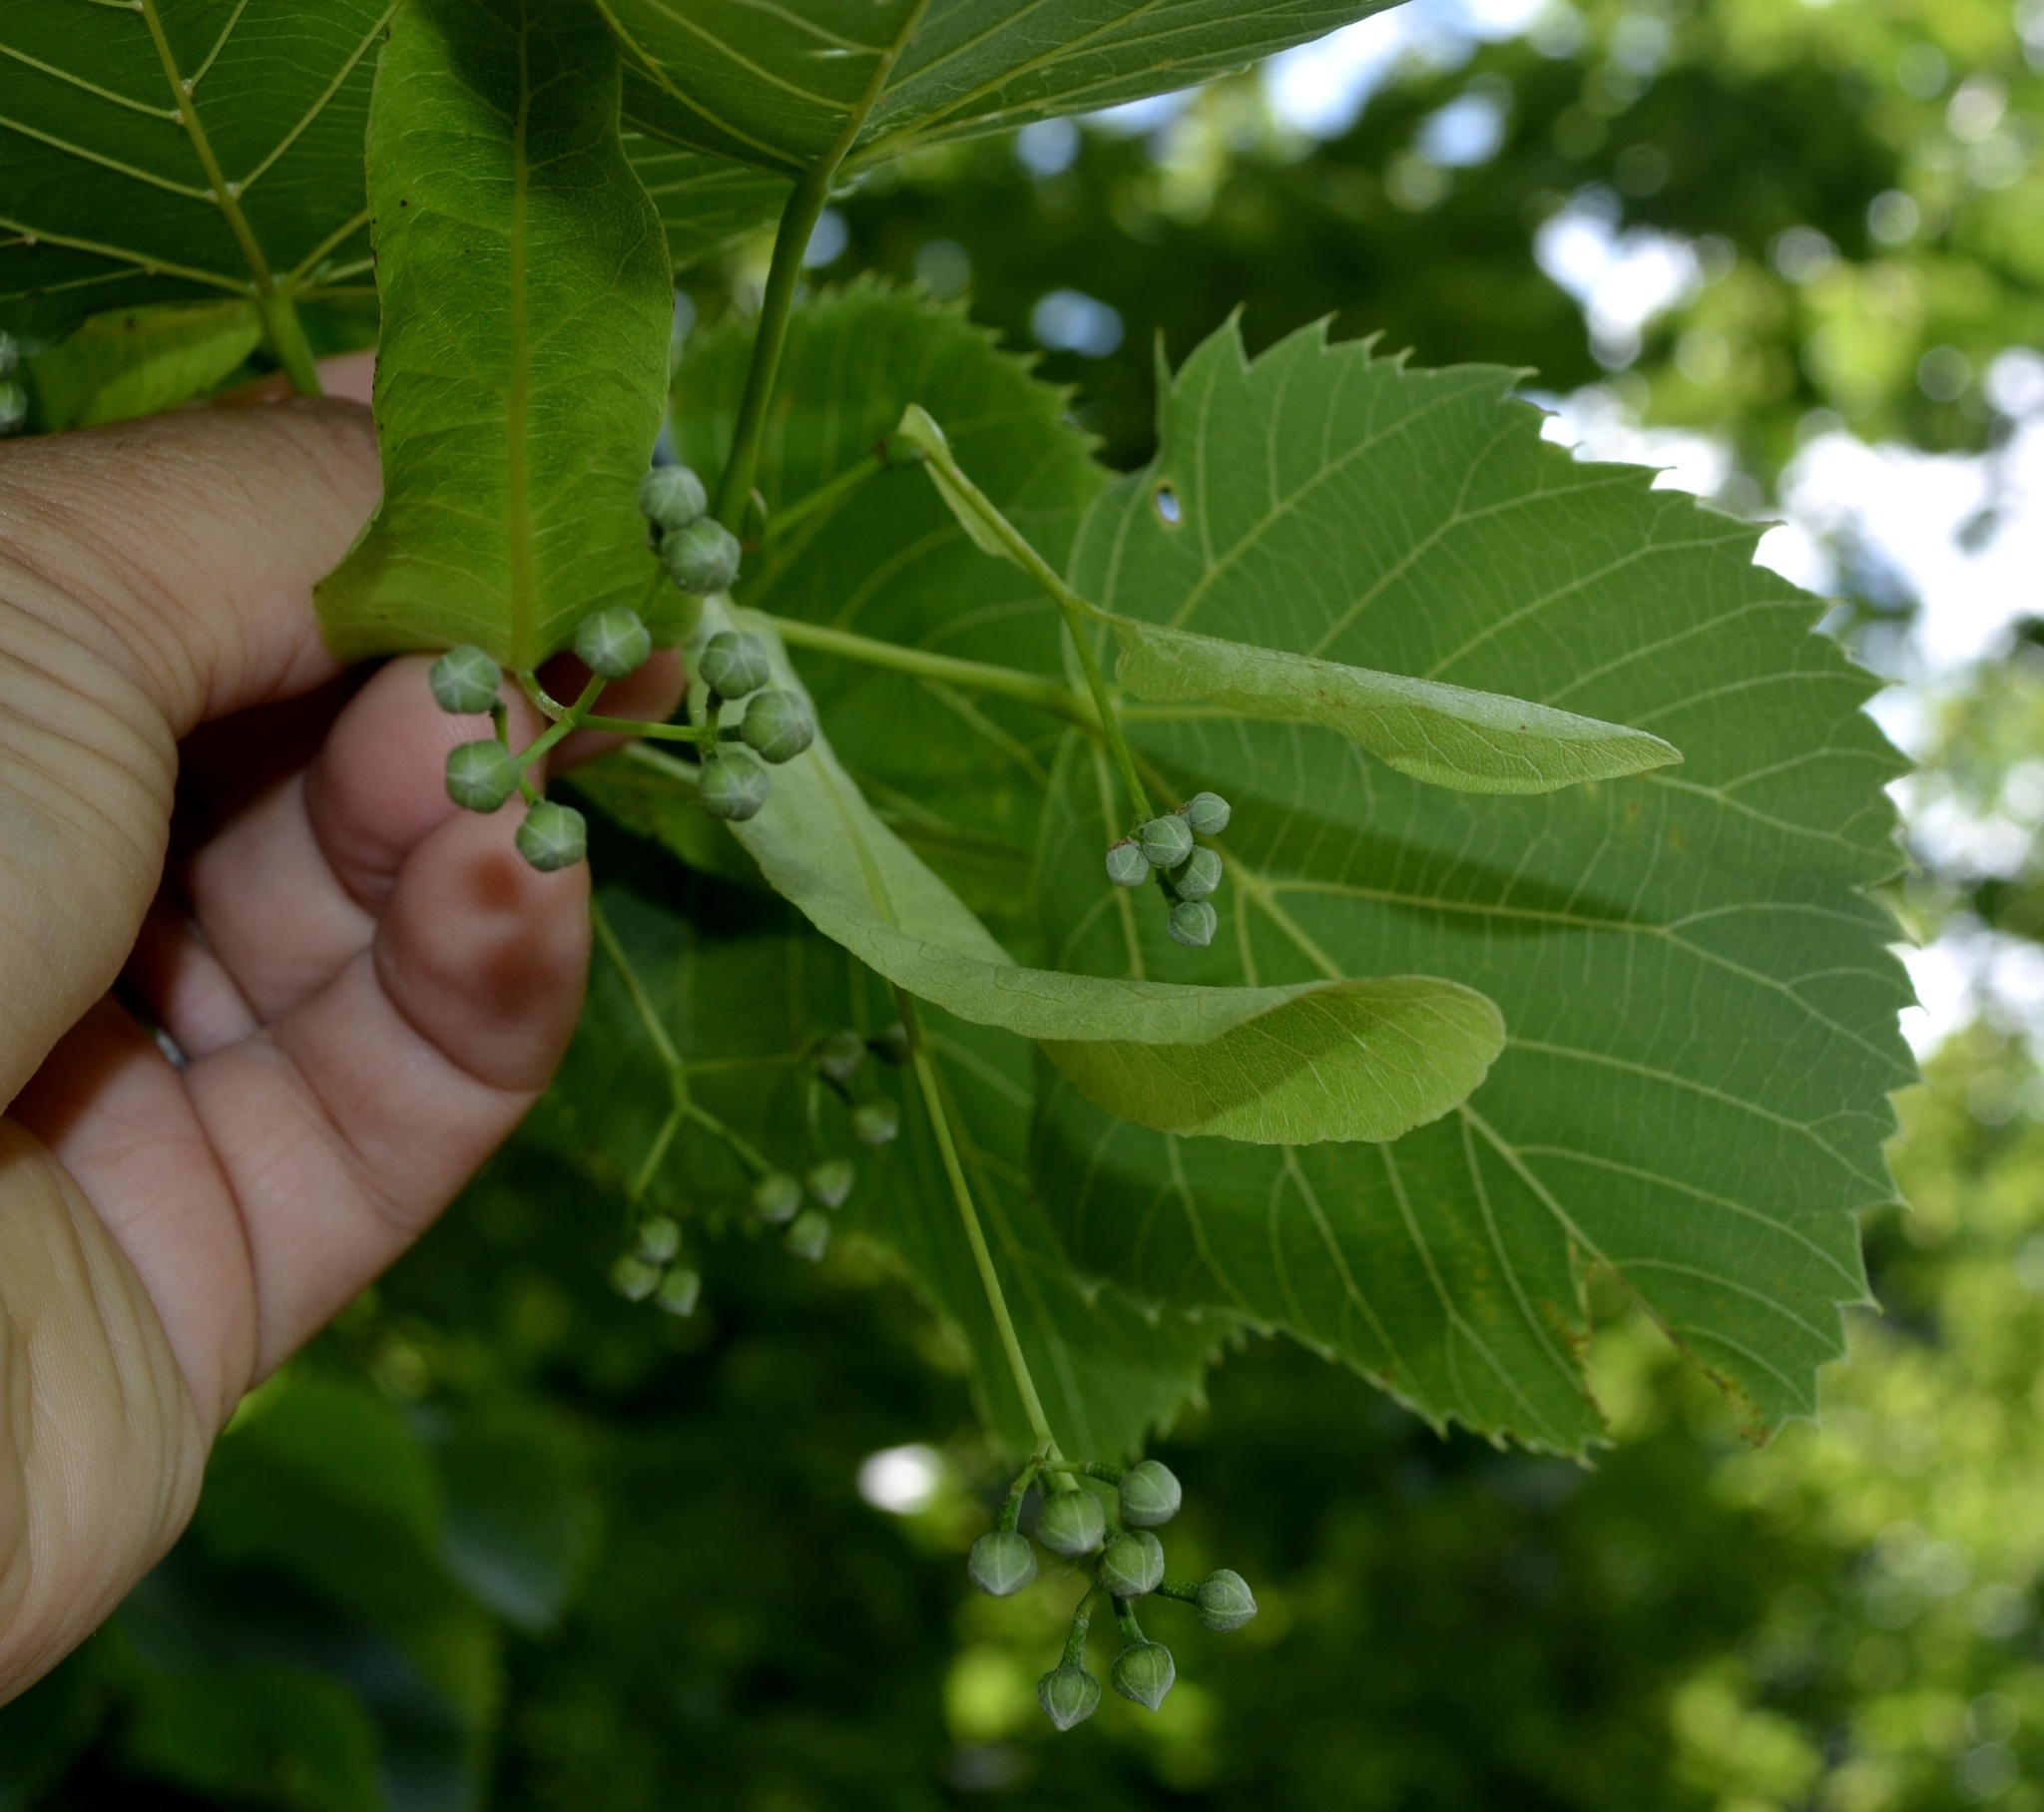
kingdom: Plantae
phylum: Tracheophyta
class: Magnoliopsida
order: Malvales
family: Malvaceae
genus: Tilia
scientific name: Tilia americana
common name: Basswood
